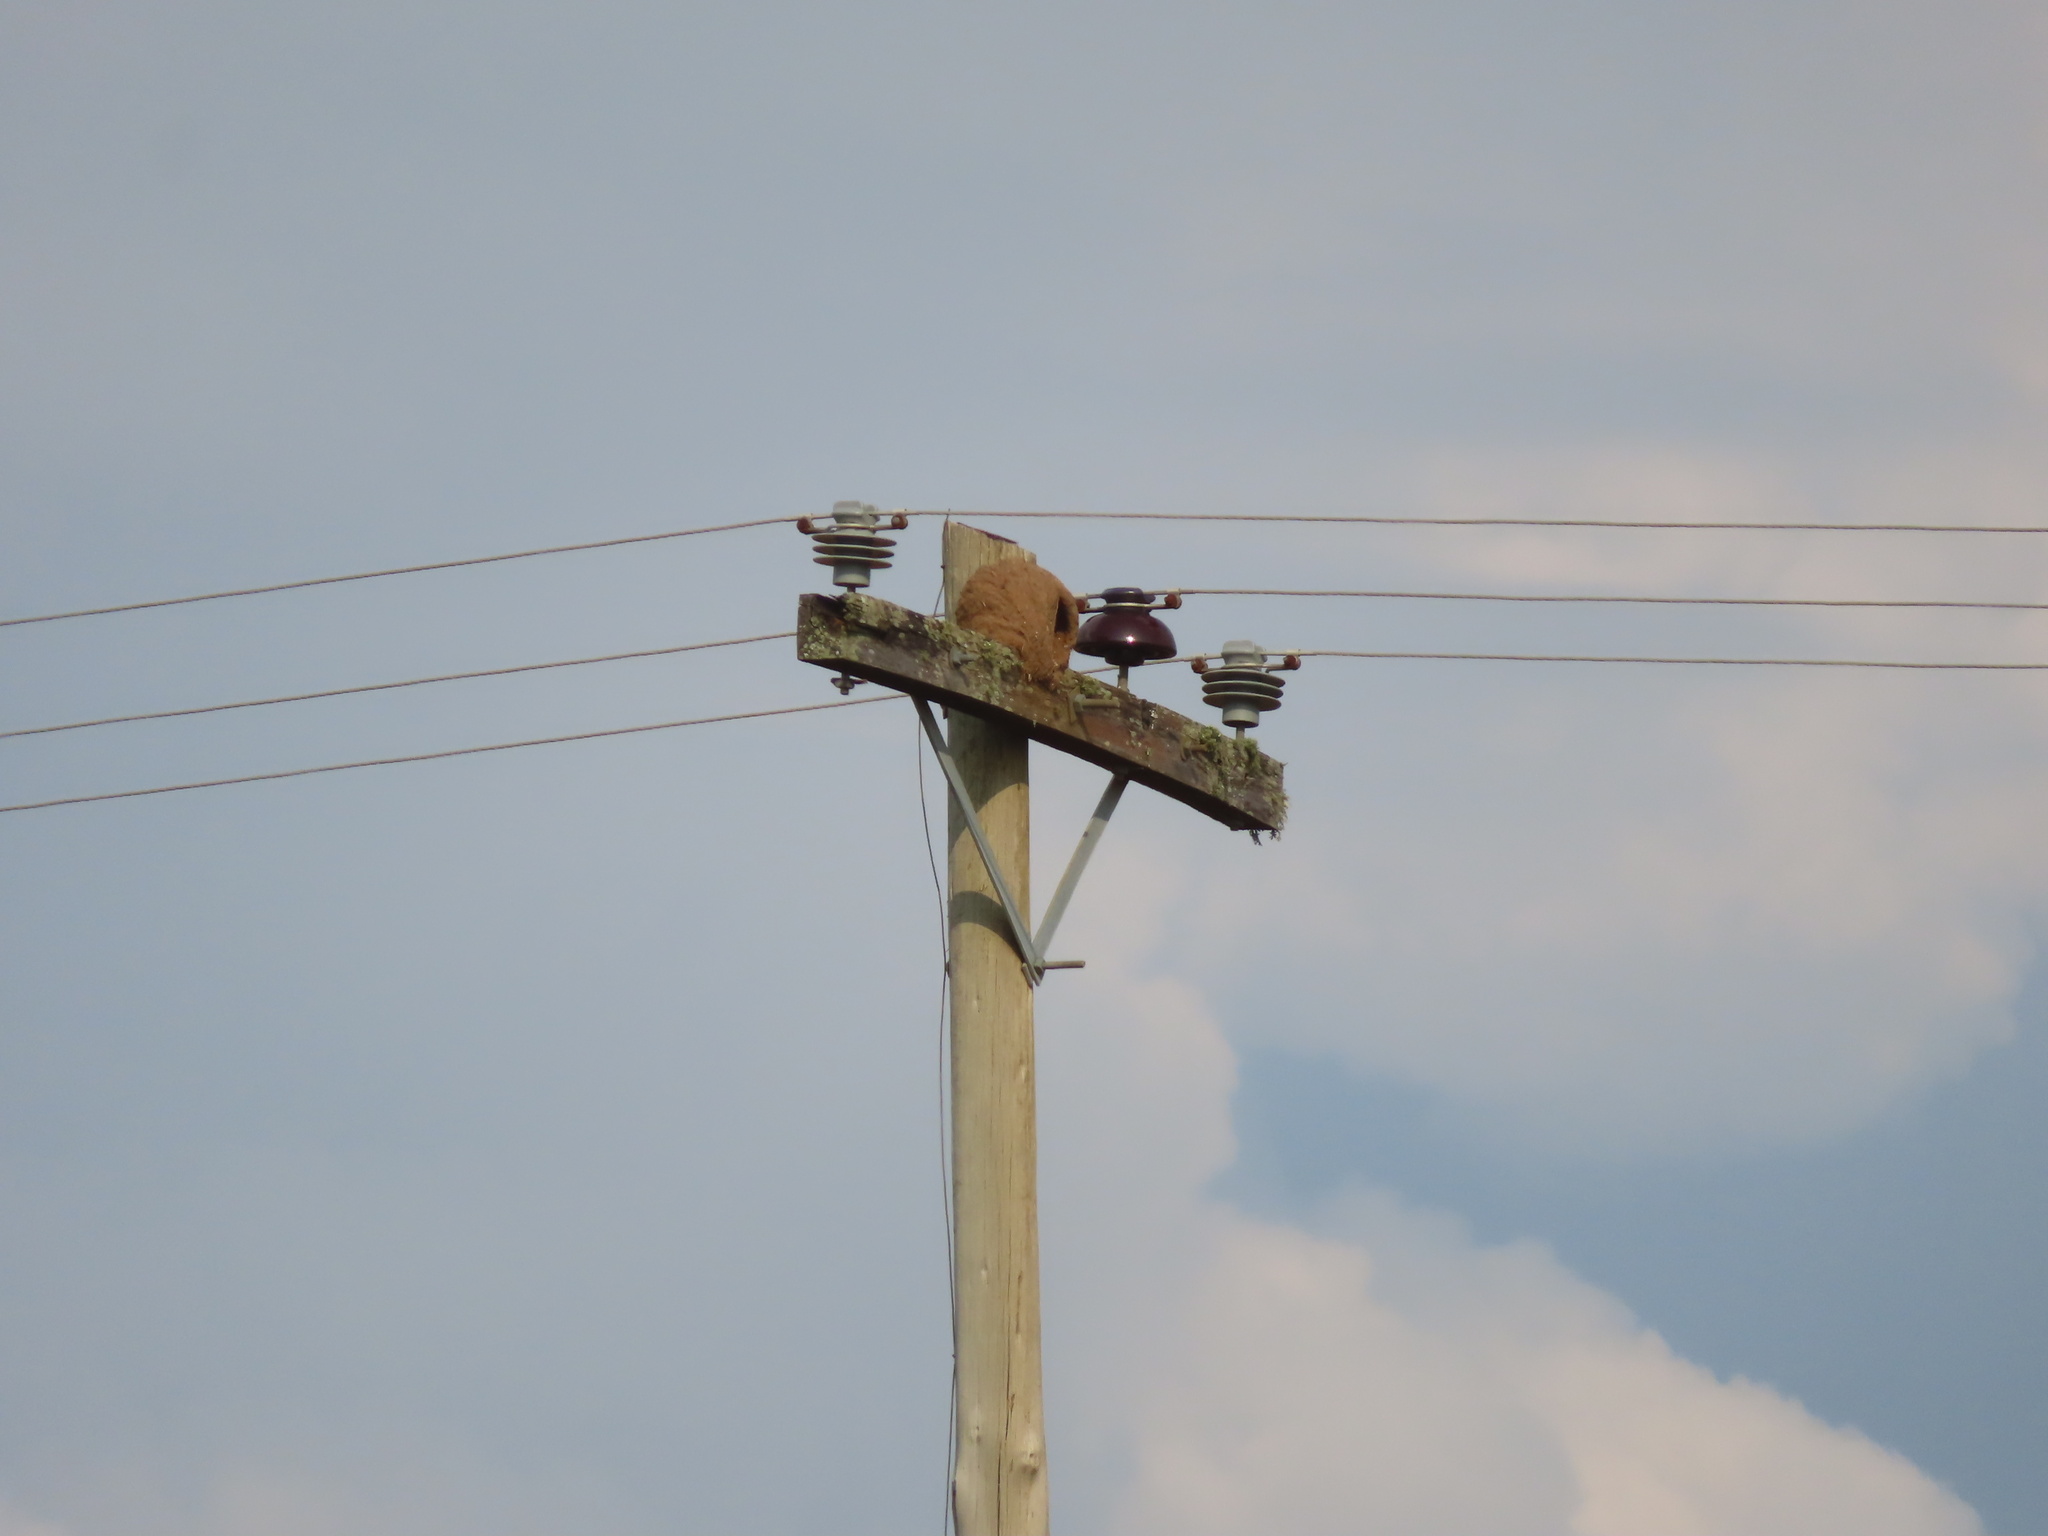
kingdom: Animalia
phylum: Chordata
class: Aves
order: Passeriformes
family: Furnariidae
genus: Furnarius
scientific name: Furnarius rufus
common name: Rufous hornero
